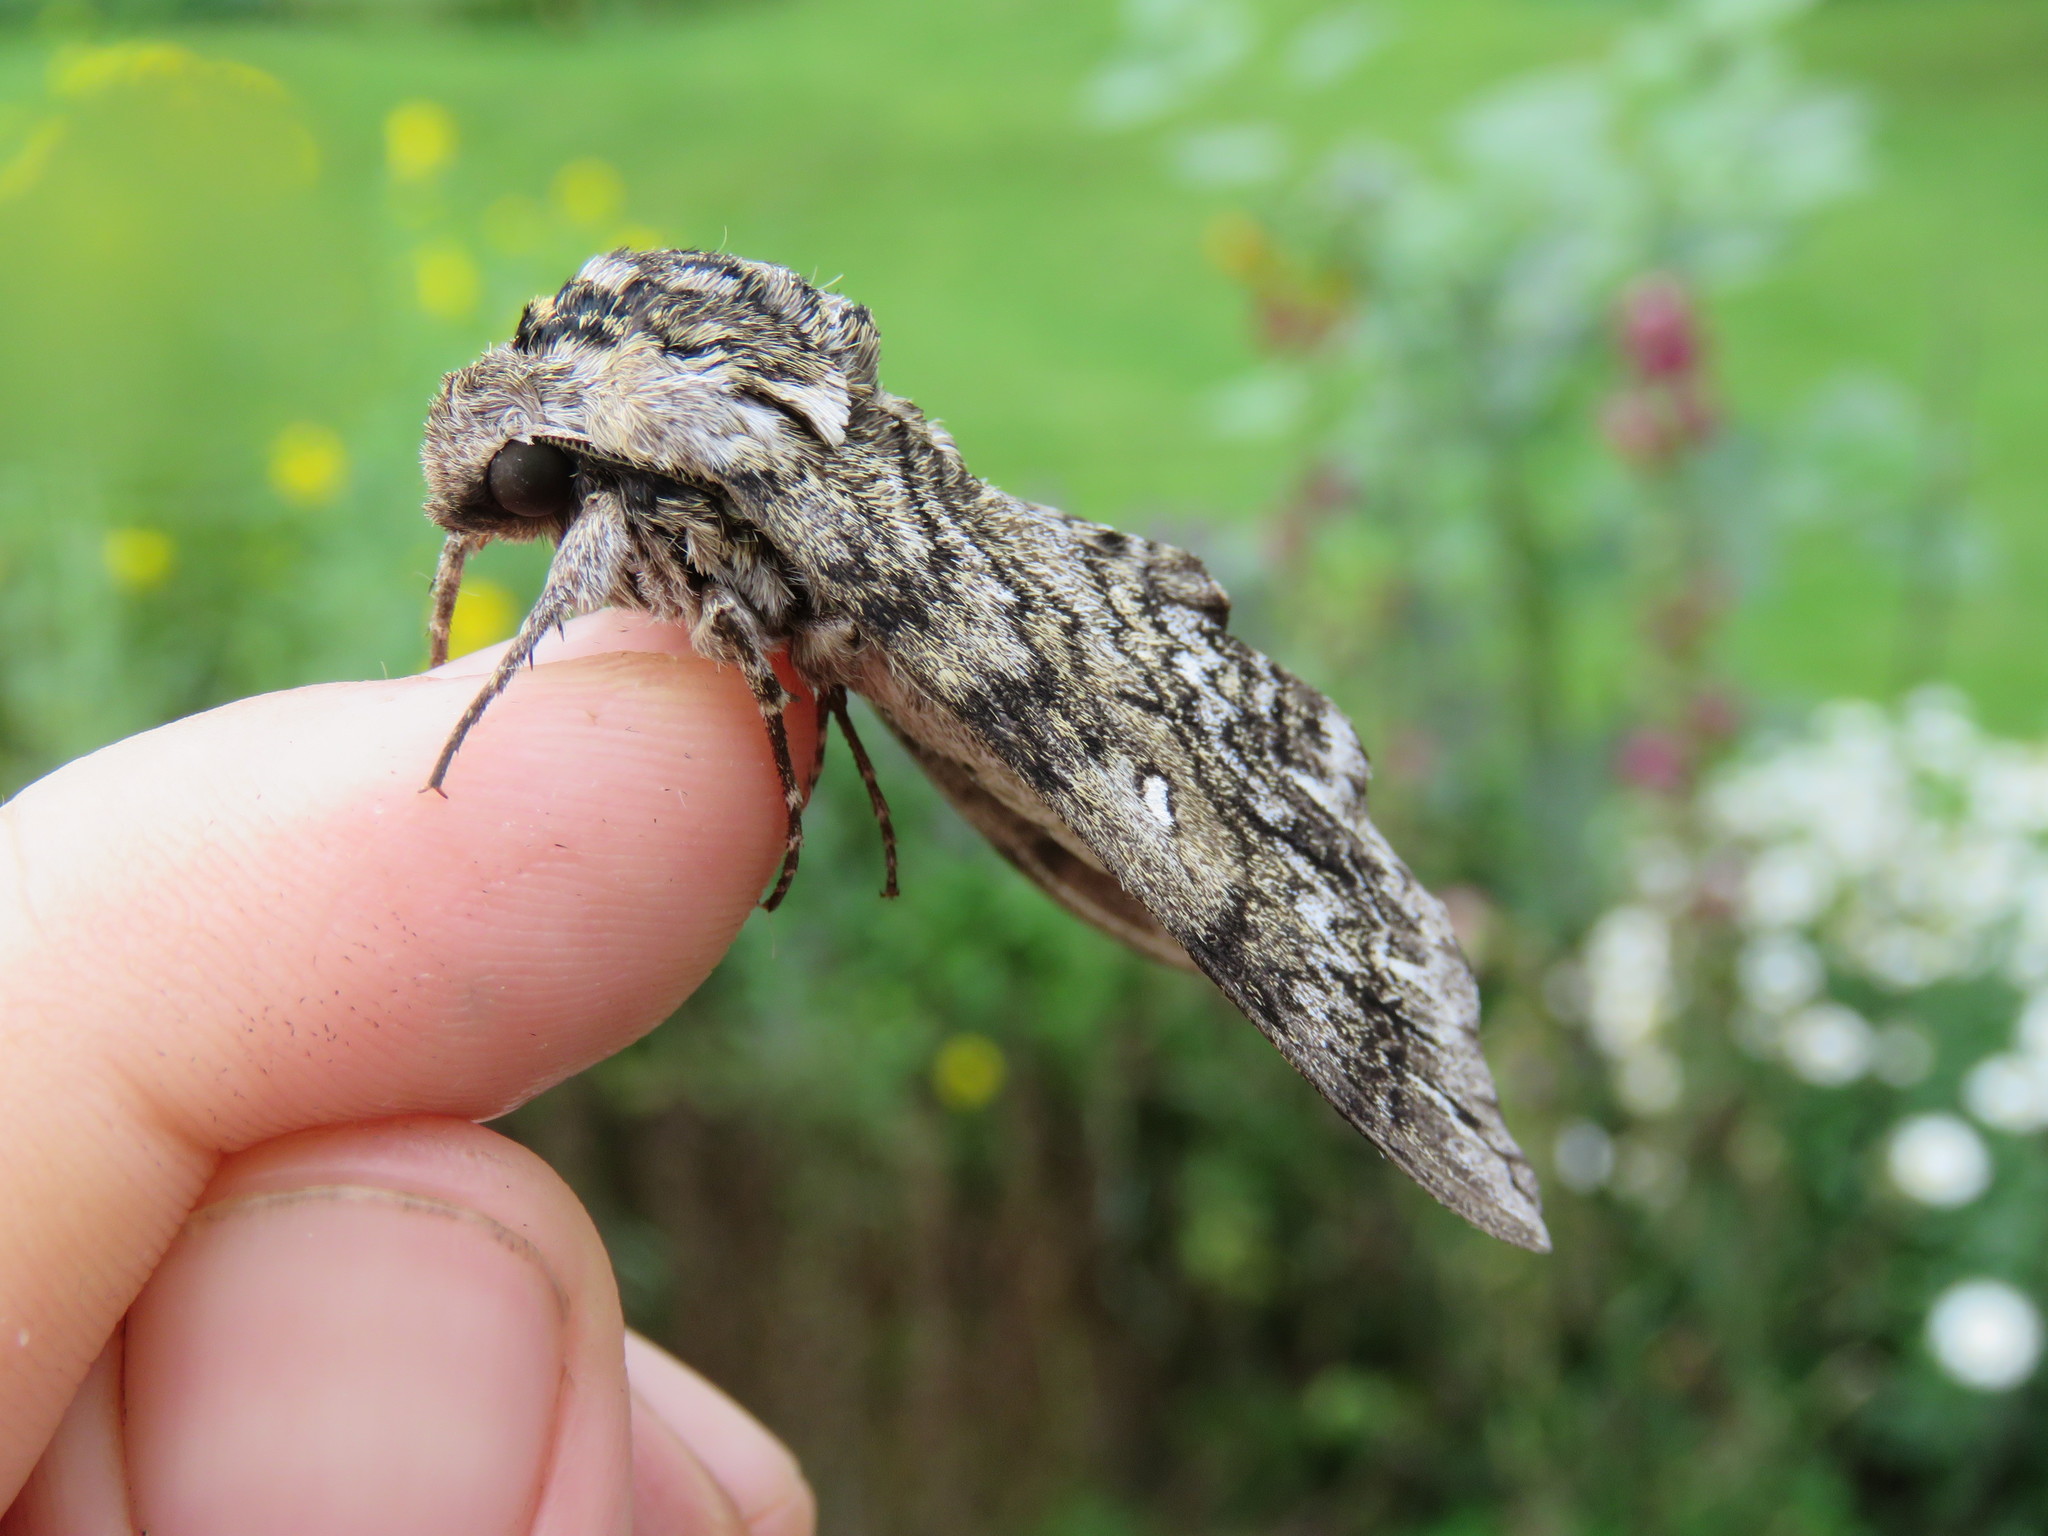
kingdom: Animalia
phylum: Arthropoda
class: Insecta
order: Lepidoptera
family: Sphingidae
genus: Ceratomia
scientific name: Ceratomia undulosa
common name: Waved sphinx
